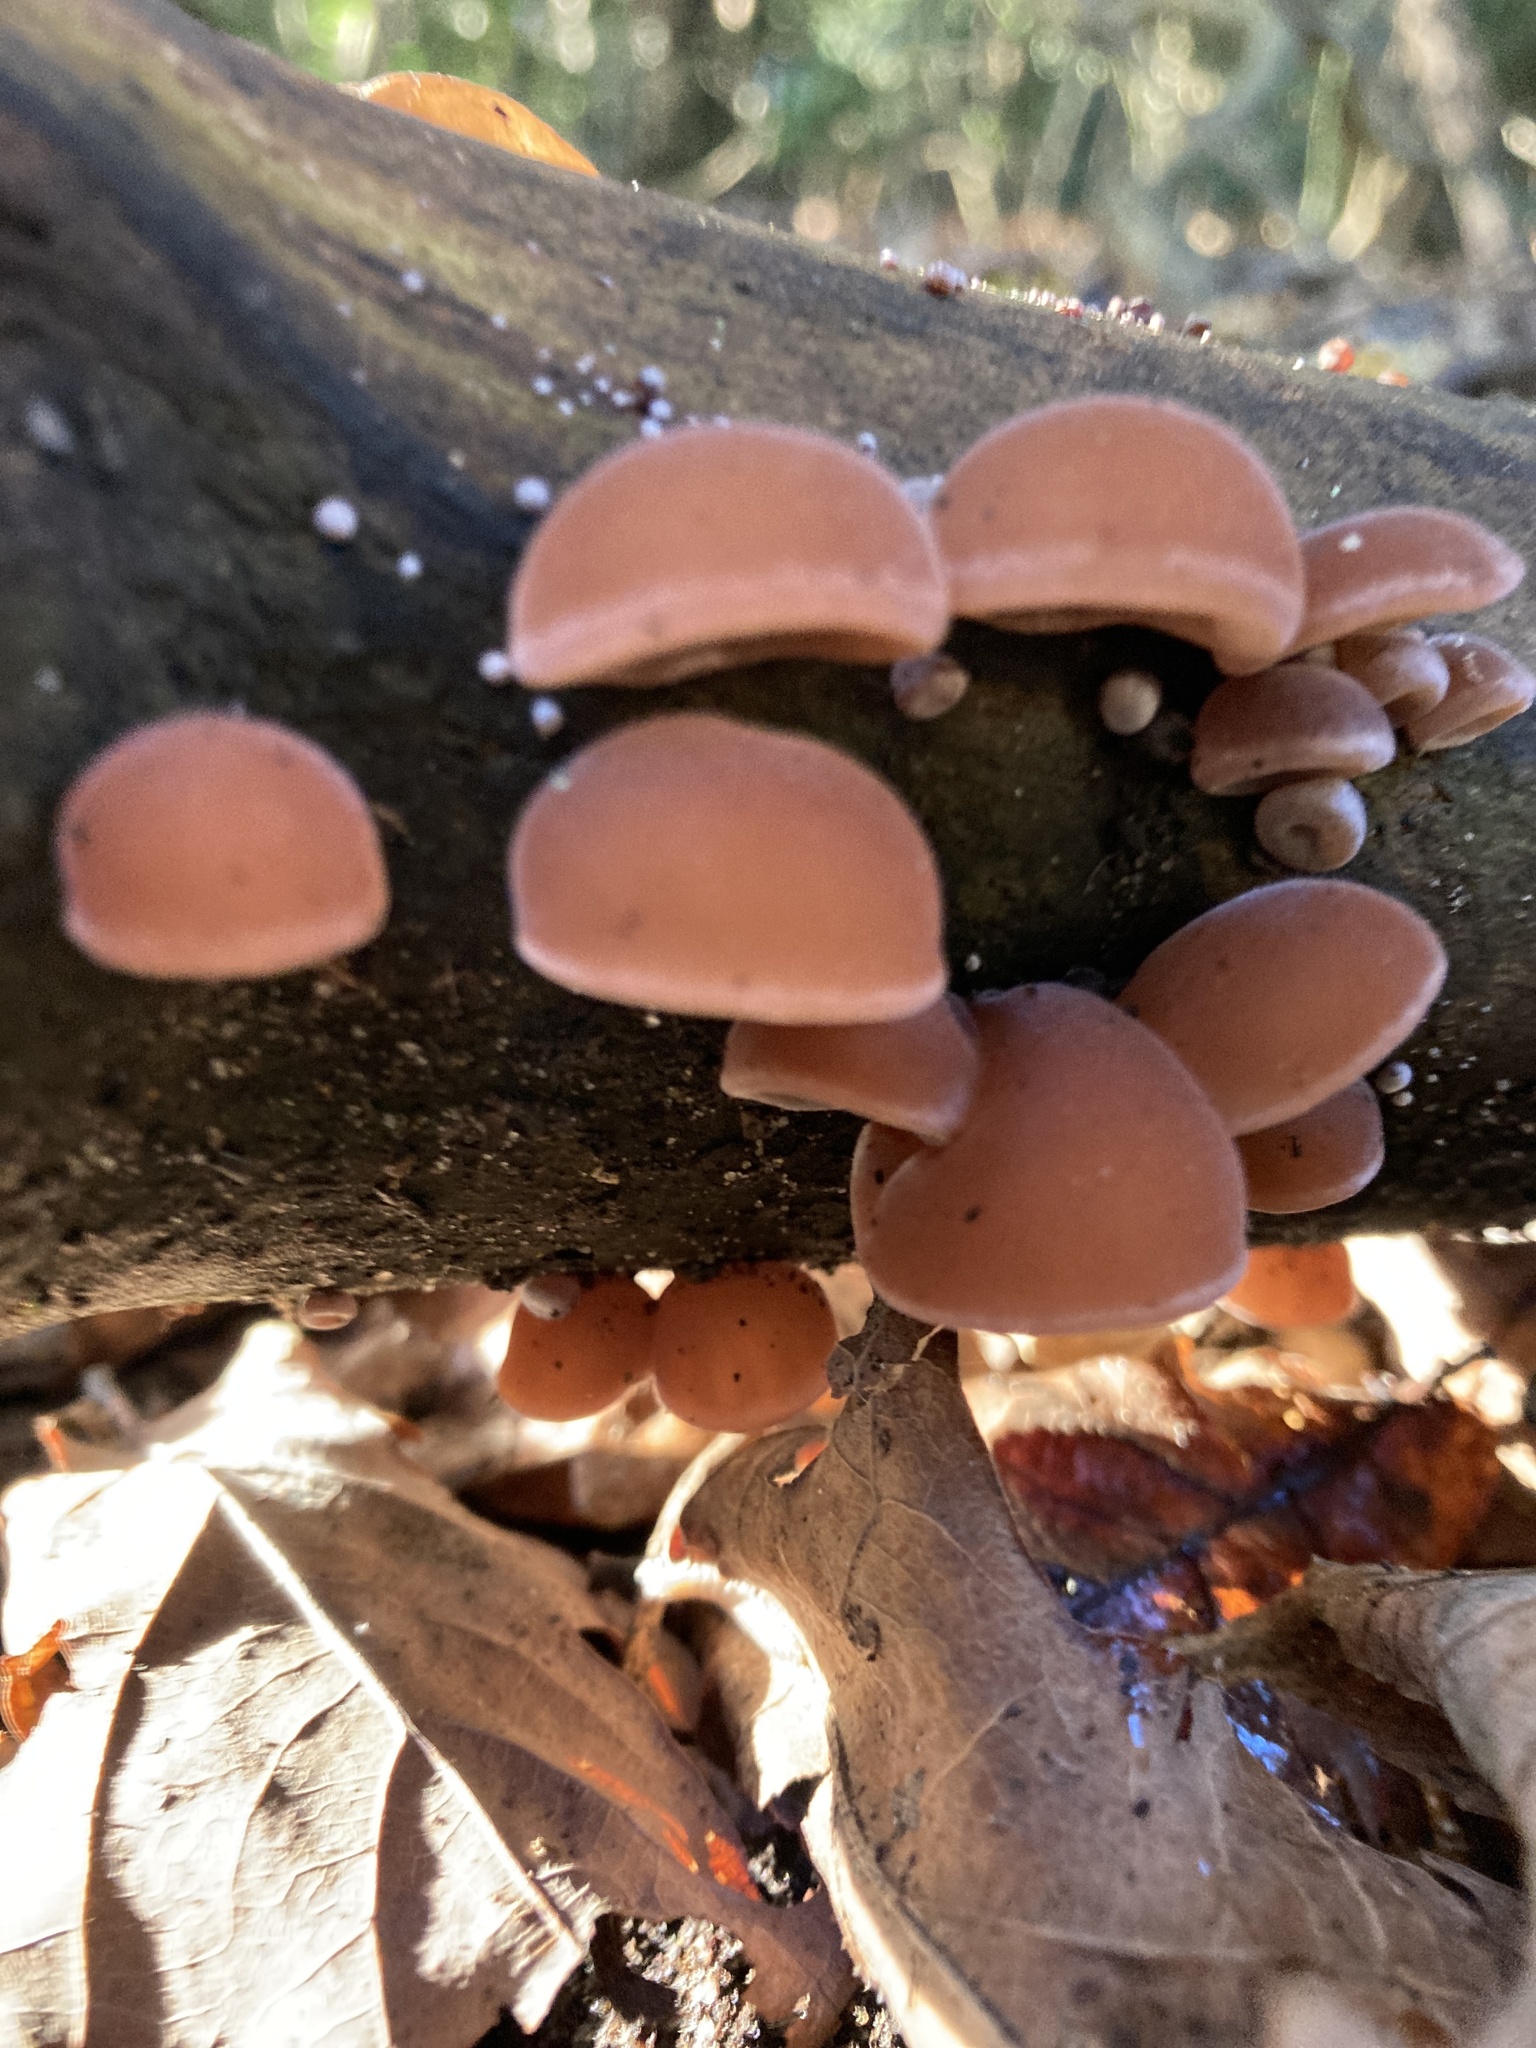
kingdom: Fungi
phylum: Basidiomycota
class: Agaricomycetes
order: Auriculariales
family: Auriculariaceae
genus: Auricularia
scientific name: Auricularia auricula-judae
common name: Jelly ear
